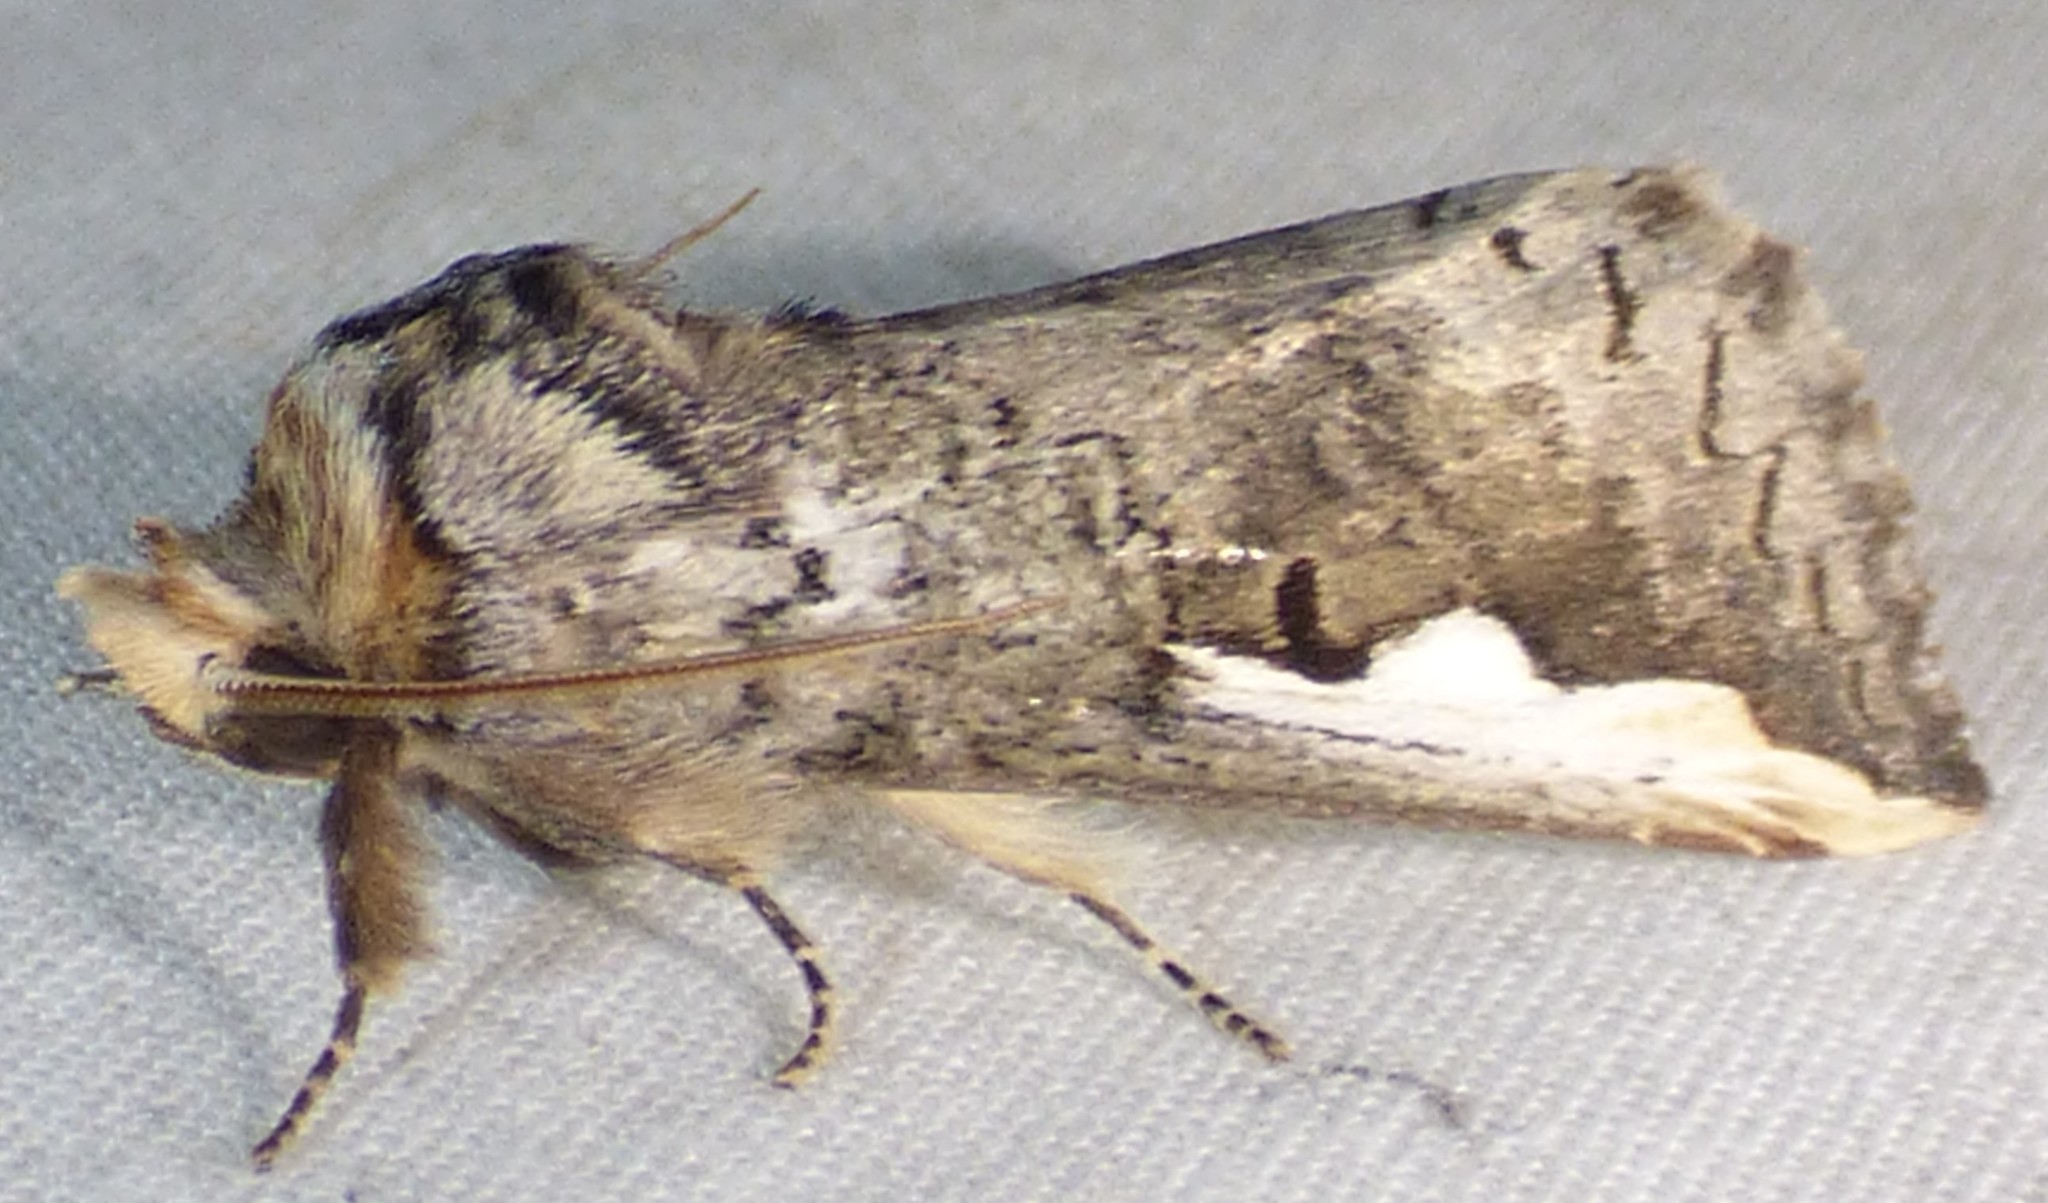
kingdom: Animalia
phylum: Arthropoda
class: Insecta
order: Lepidoptera
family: Notodontidae
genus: Symmerista
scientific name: Symmerista albifrons
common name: White-headed prominent
